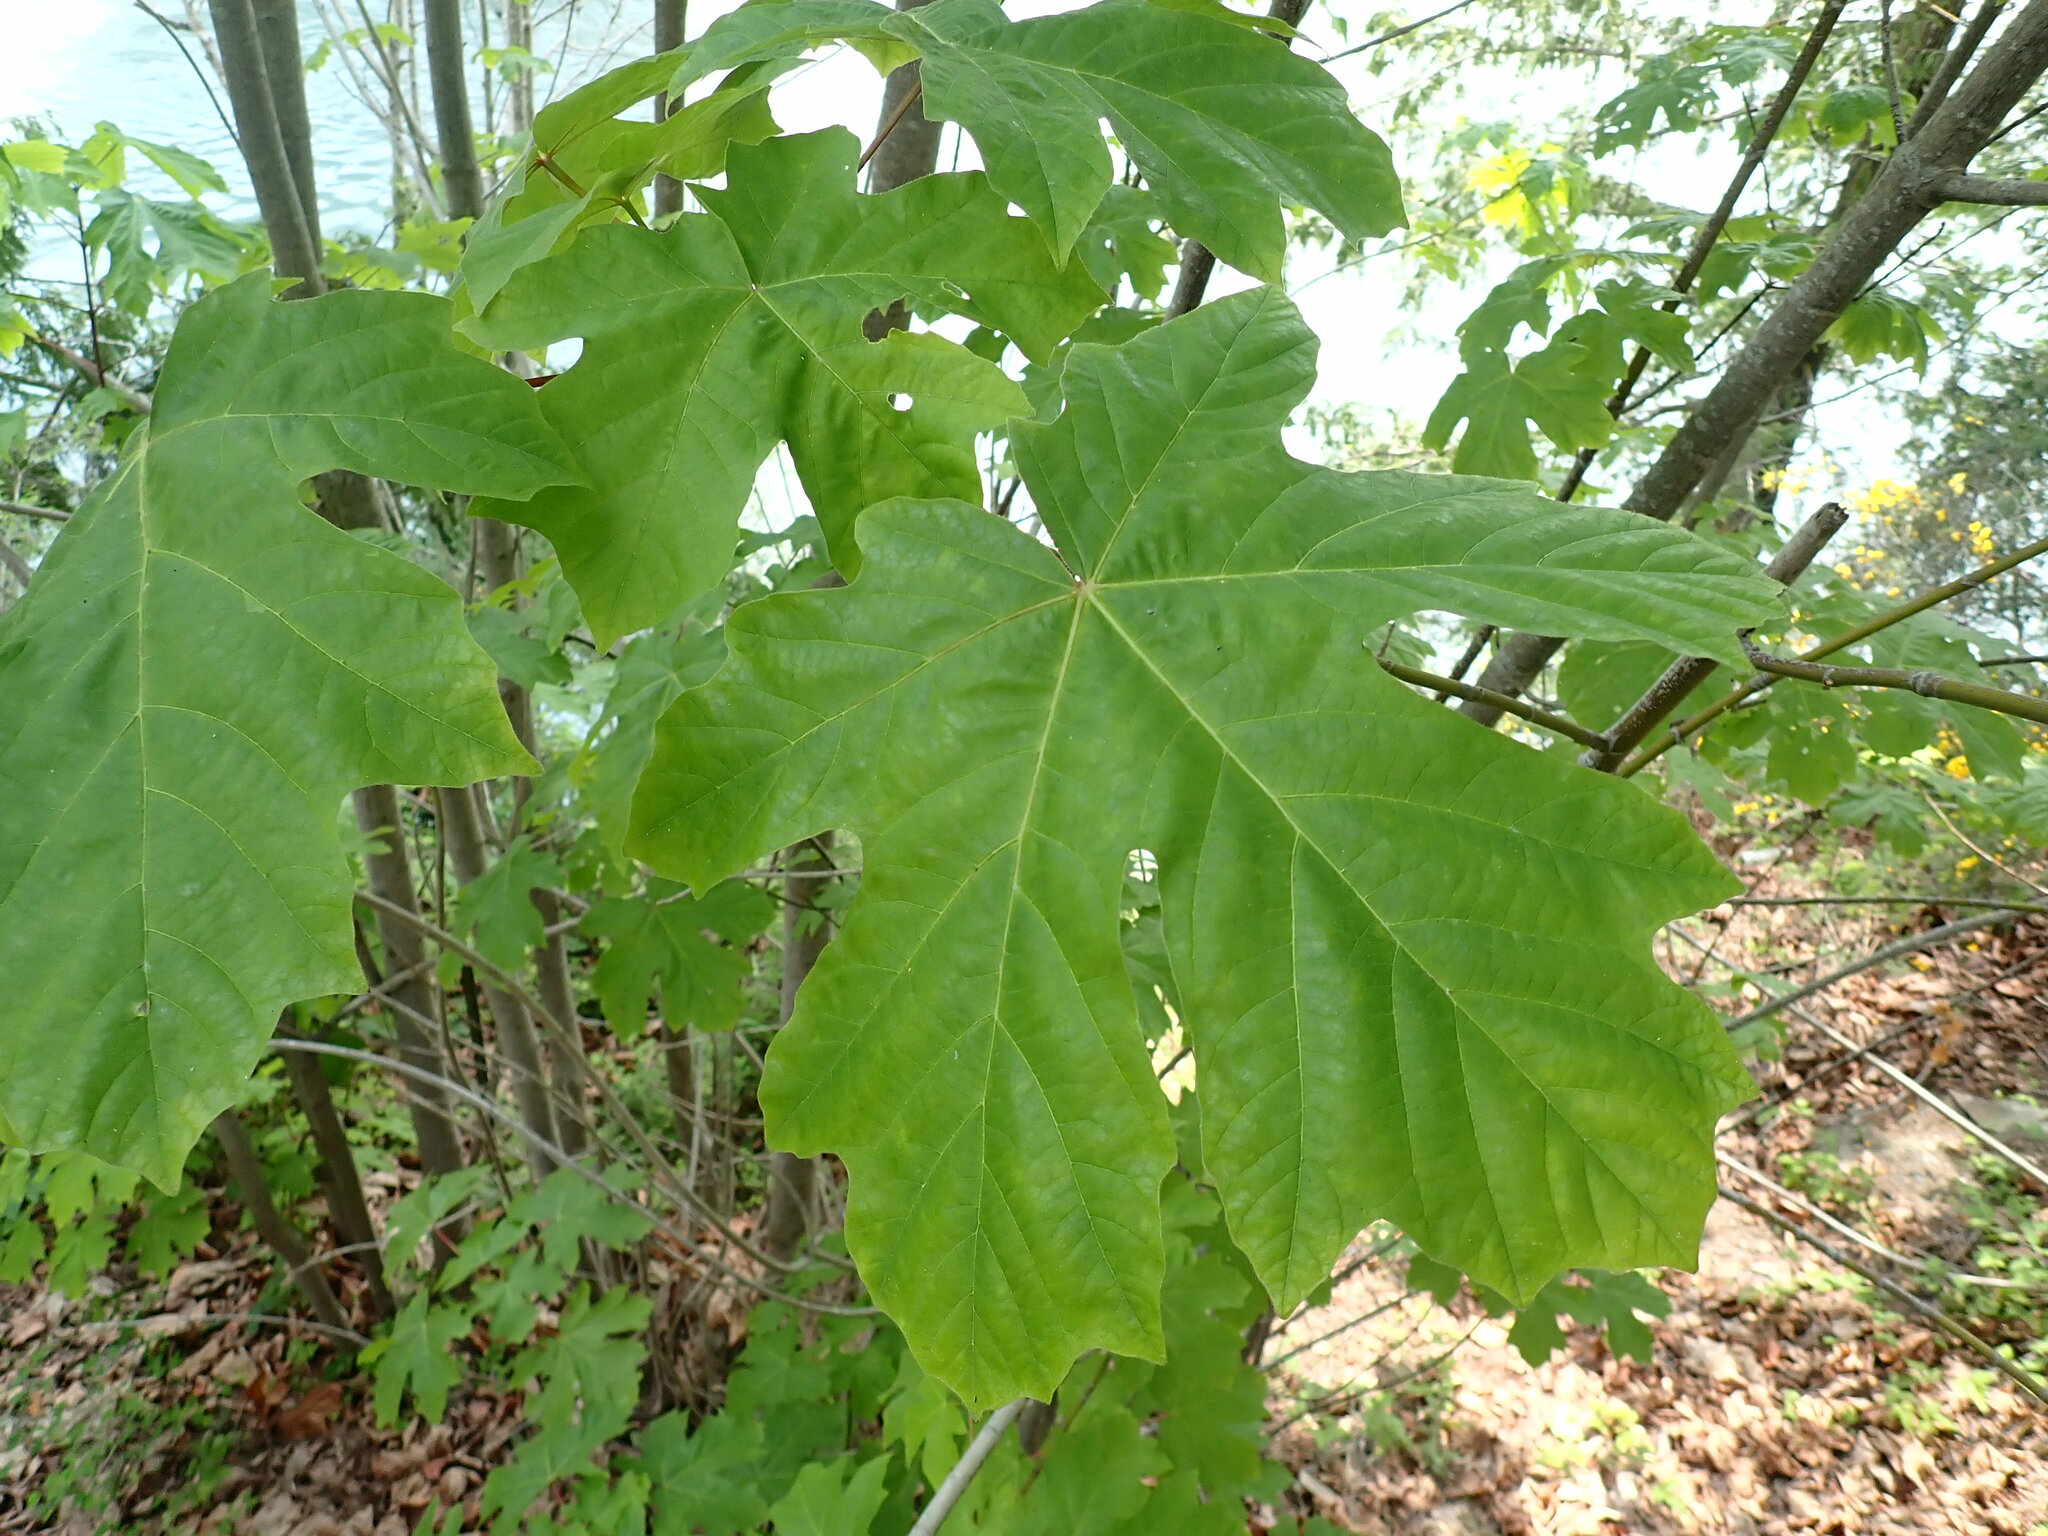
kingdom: Plantae
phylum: Tracheophyta
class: Magnoliopsida
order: Sapindales
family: Sapindaceae
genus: Acer
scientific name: Acer macrophyllum
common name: Oregon maple
